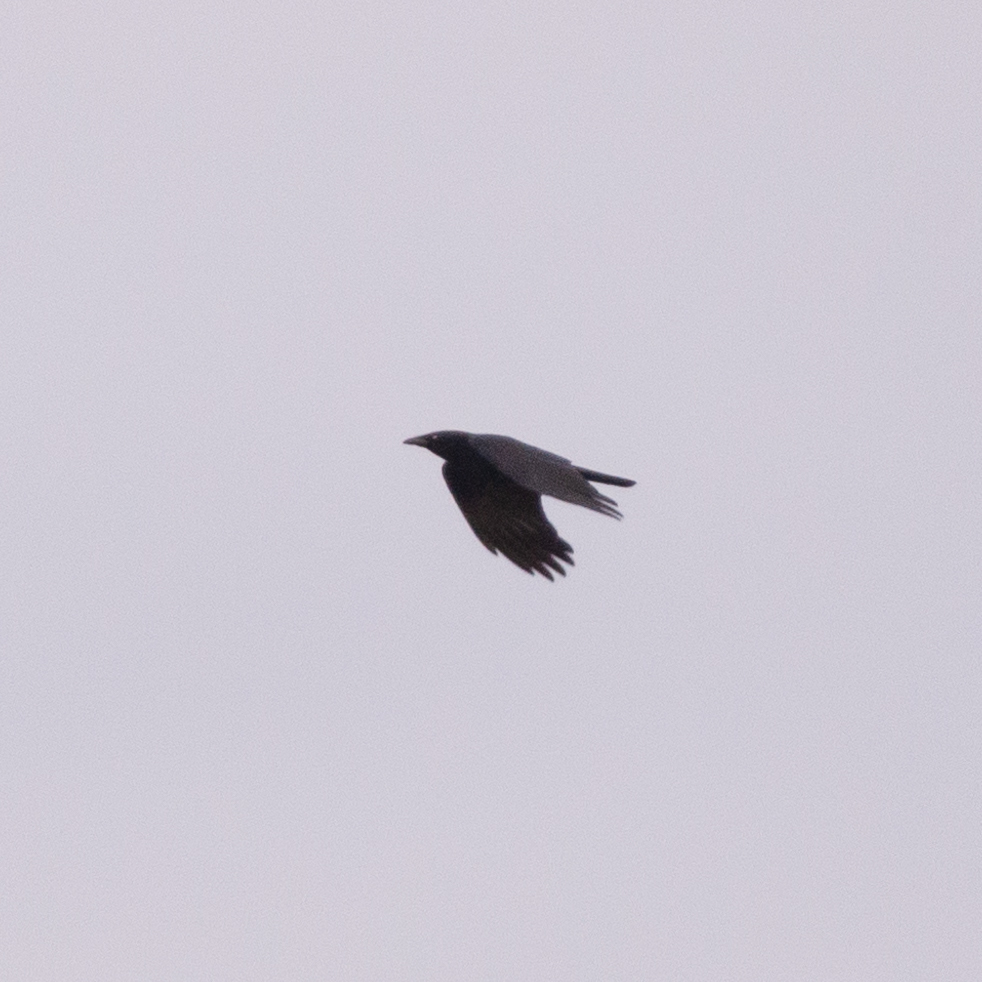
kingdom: Animalia
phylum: Chordata
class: Aves
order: Passeriformes
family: Corvidae
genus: Corvus
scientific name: Corvus corone
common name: Carrion crow
